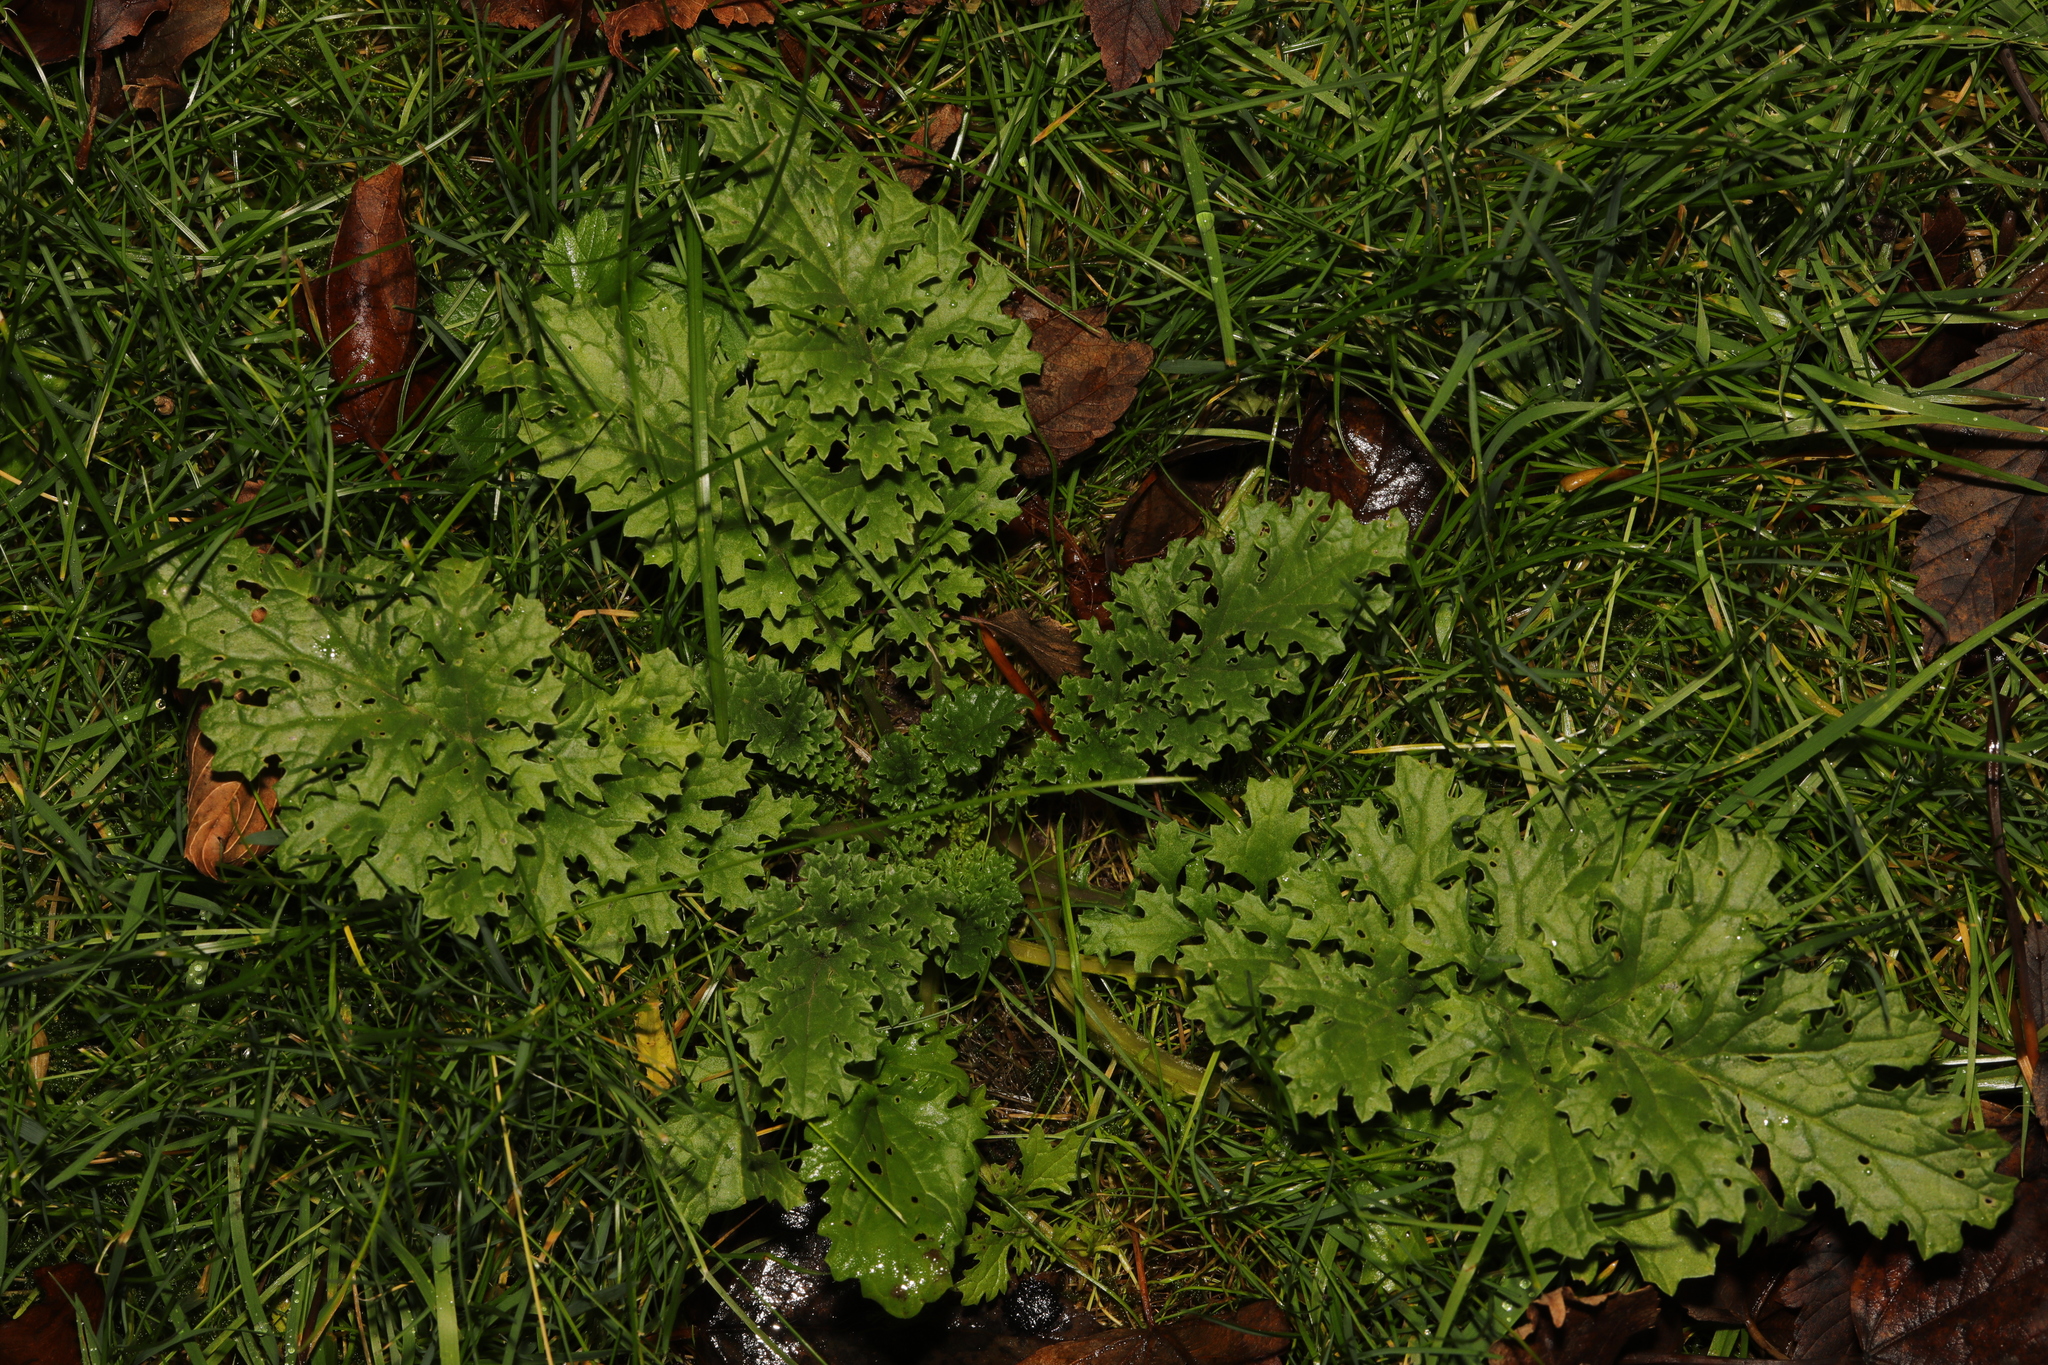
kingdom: Plantae
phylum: Tracheophyta
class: Magnoliopsida
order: Asterales
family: Asteraceae
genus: Jacobaea
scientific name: Jacobaea vulgaris
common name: Stinking willie
